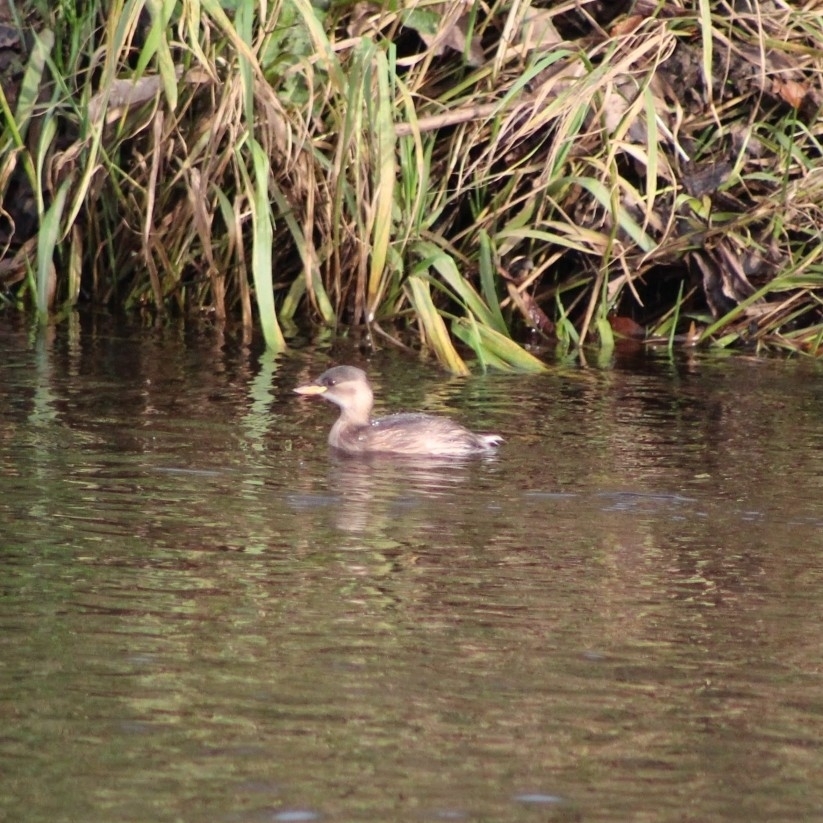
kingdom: Animalia
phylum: Chordata
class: Aves
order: Podicipediformes
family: Podicipedidae
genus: Tachybaptus
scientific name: Tachybaptus ruficollis
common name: Little grebe
